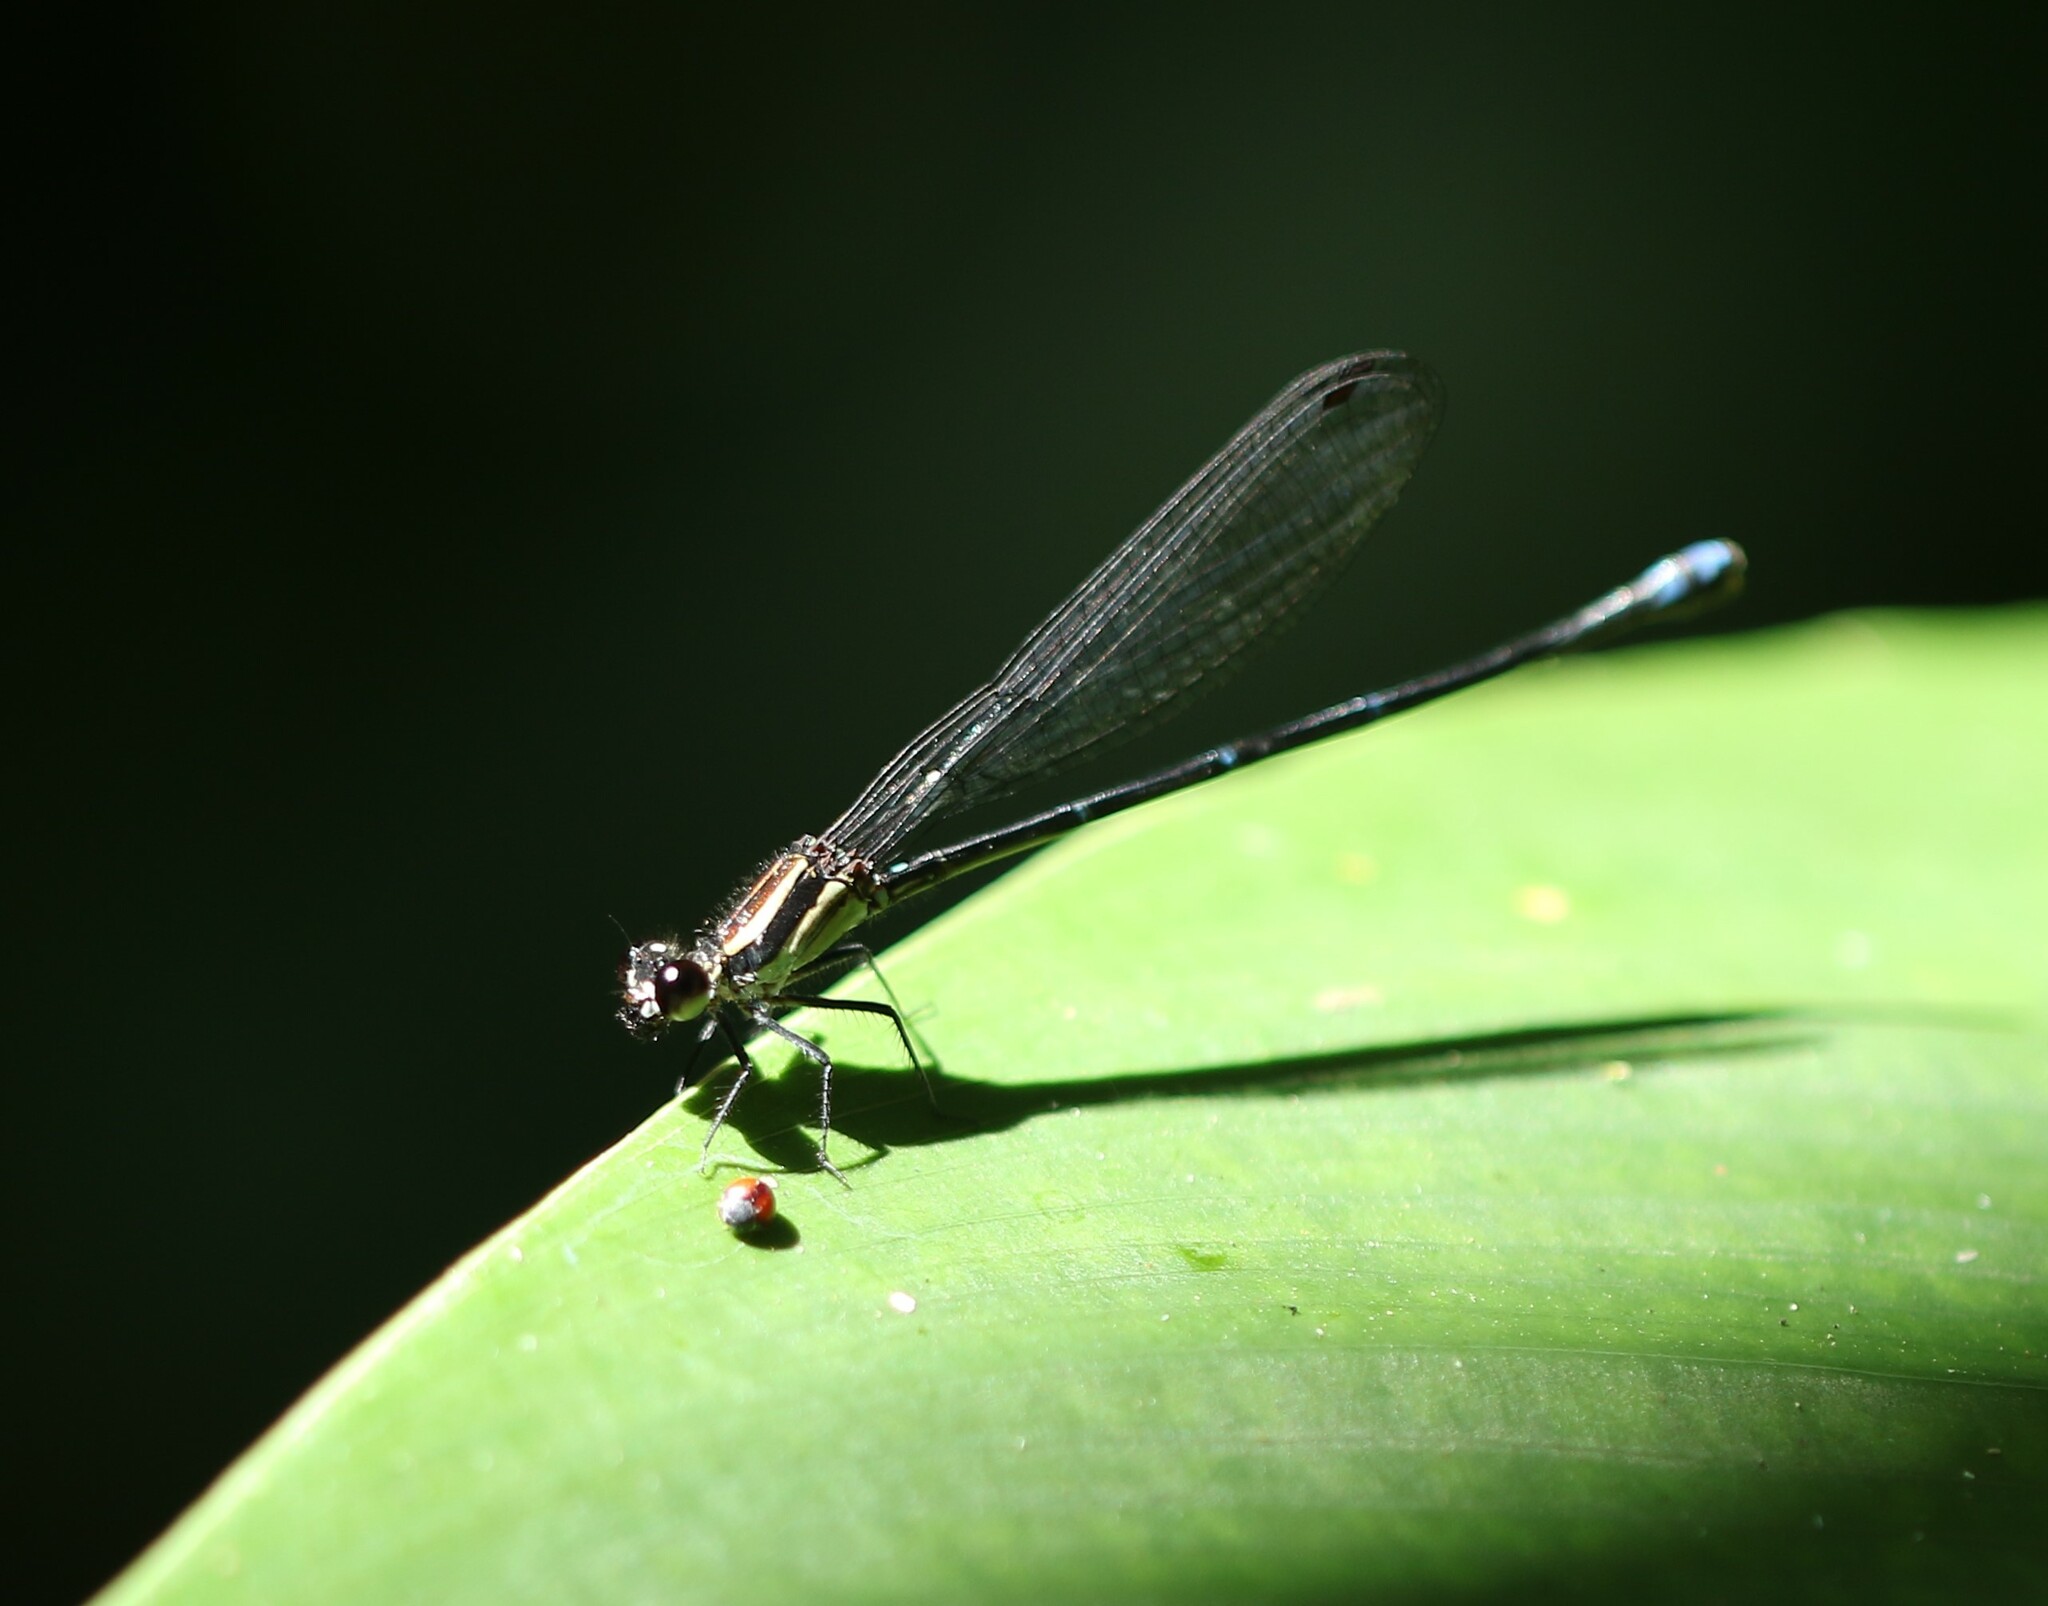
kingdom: Animalia
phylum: Arthropoda
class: Insecta
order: Odonata
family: Coenagrionidae
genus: Argia
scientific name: Argia oculata
